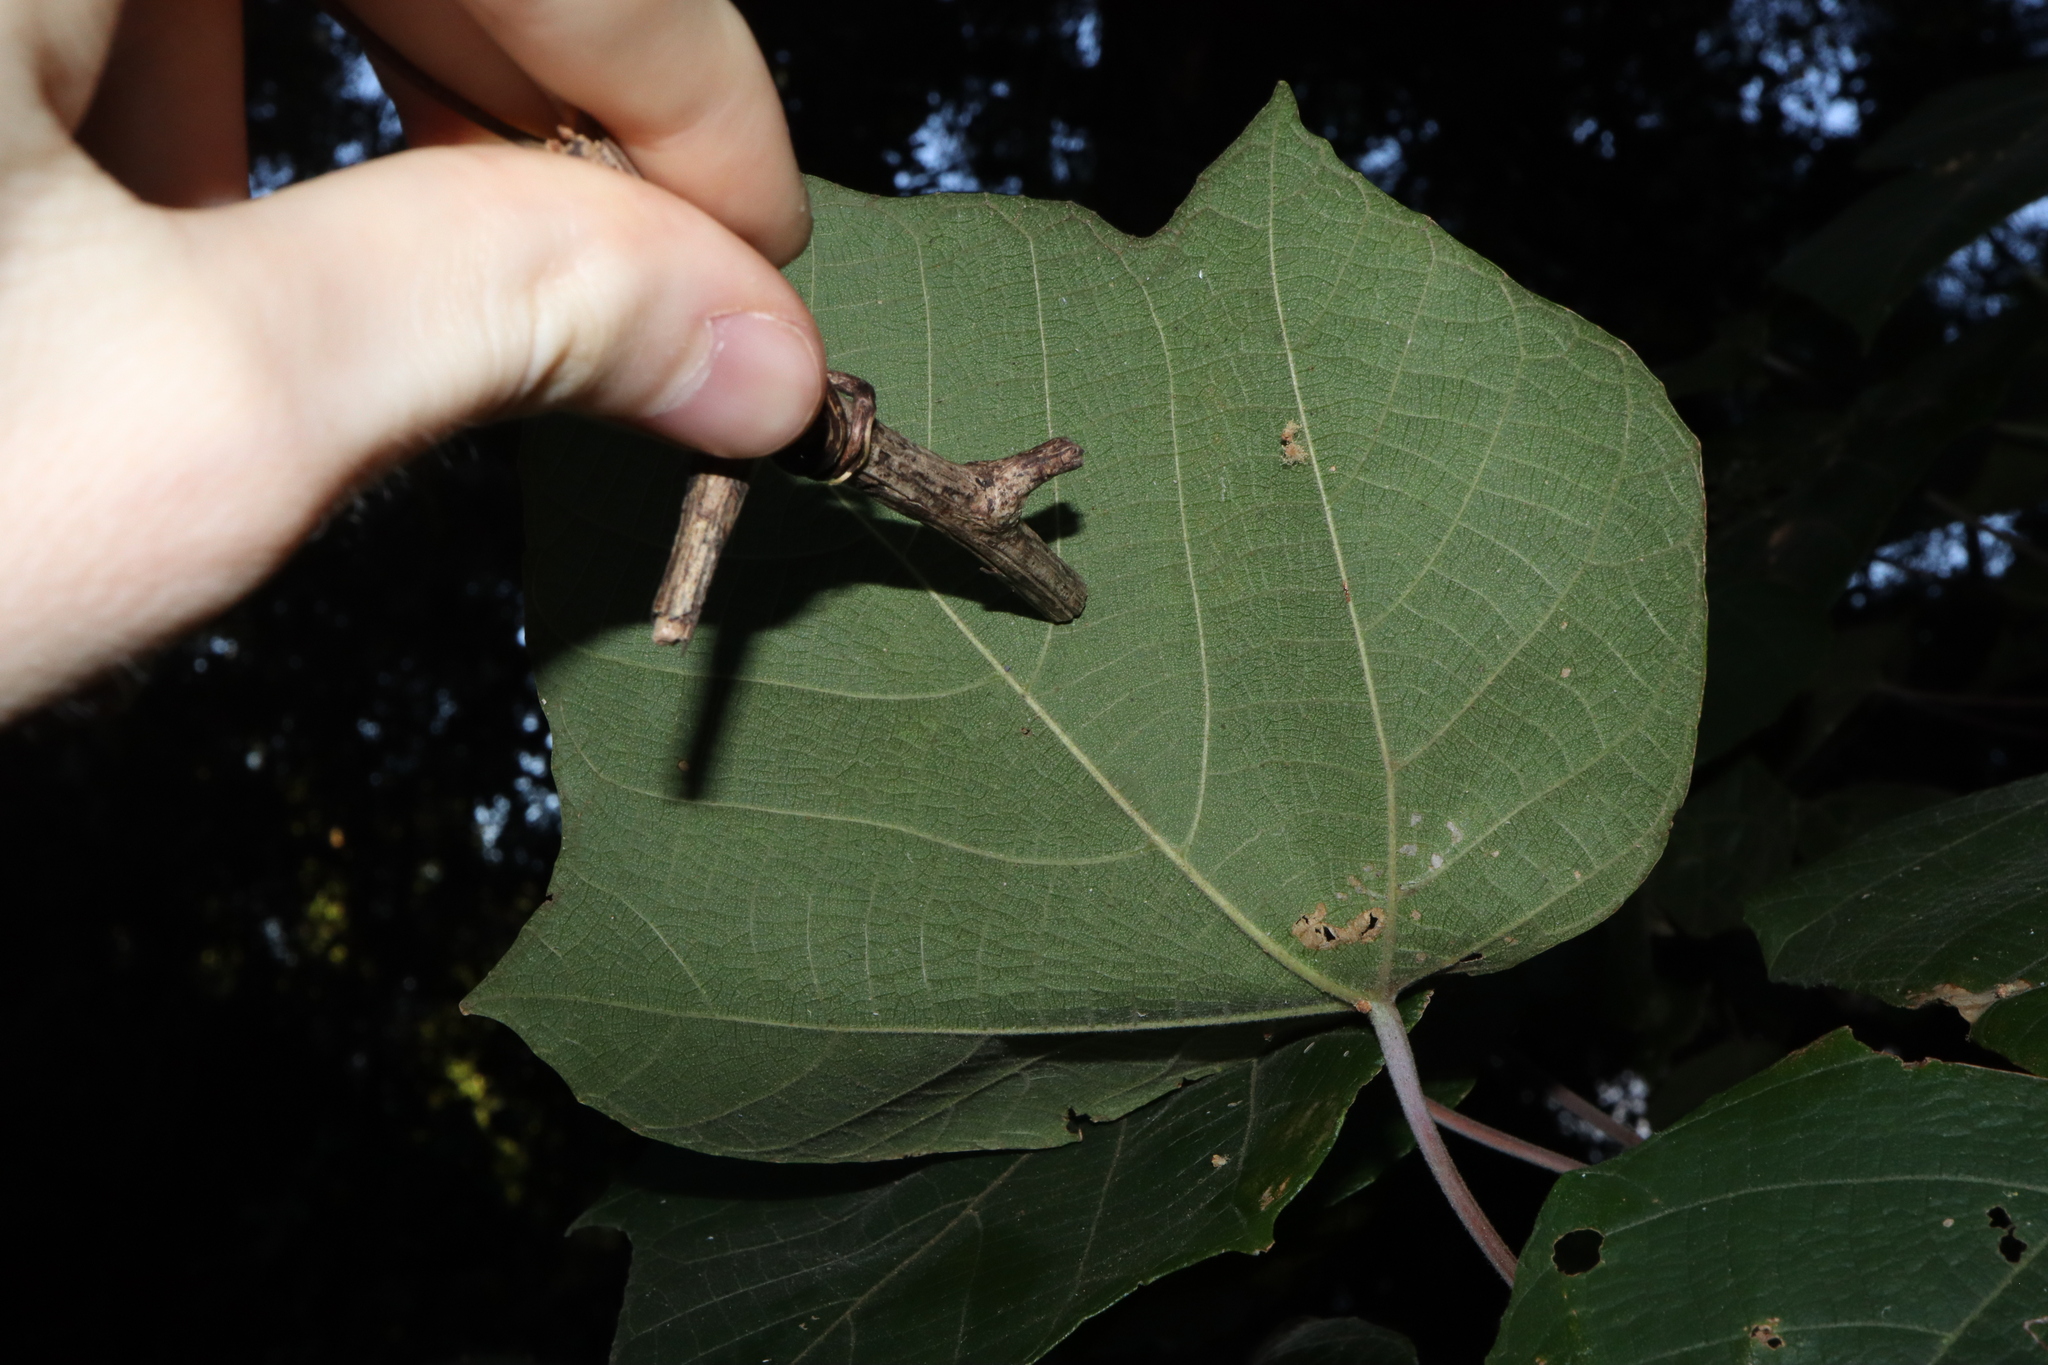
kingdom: Plantae
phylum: Tracheophyta
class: Magnoliopsida
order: Malpighiales
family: Euphorbiaceae
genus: Macaranga
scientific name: Macaranga involucrata
